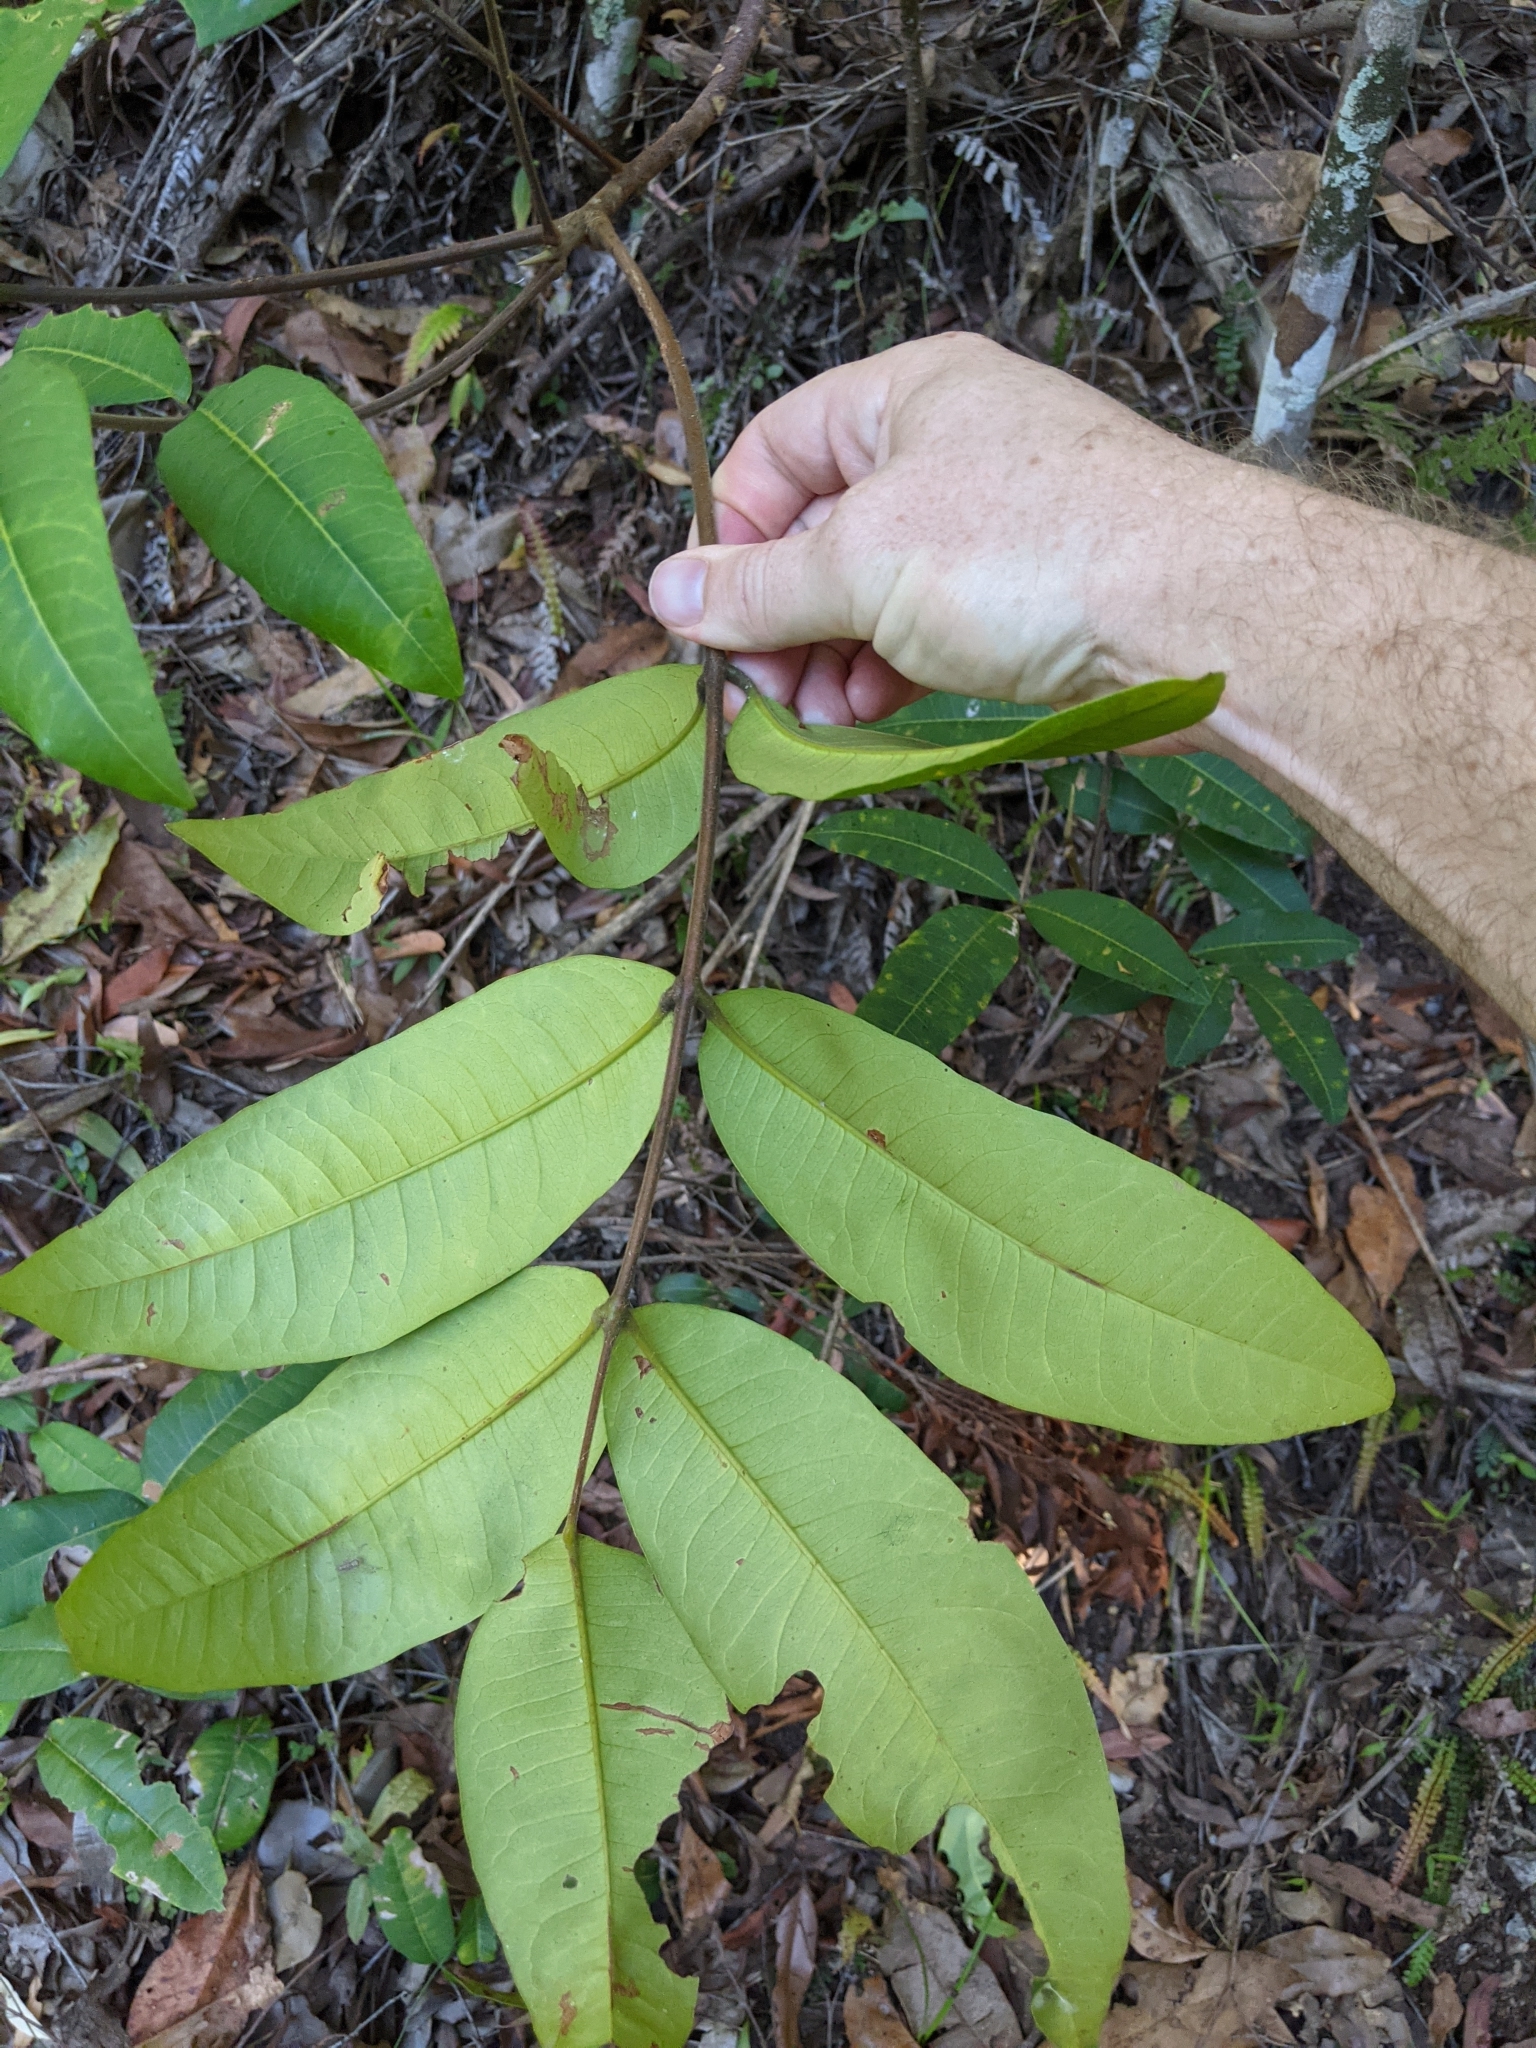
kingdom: Plantae
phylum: Tracheophyta
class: Magnoliopsida
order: Sapindales
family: Rutaceae
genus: Flindersia
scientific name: Flindersia bennettii
